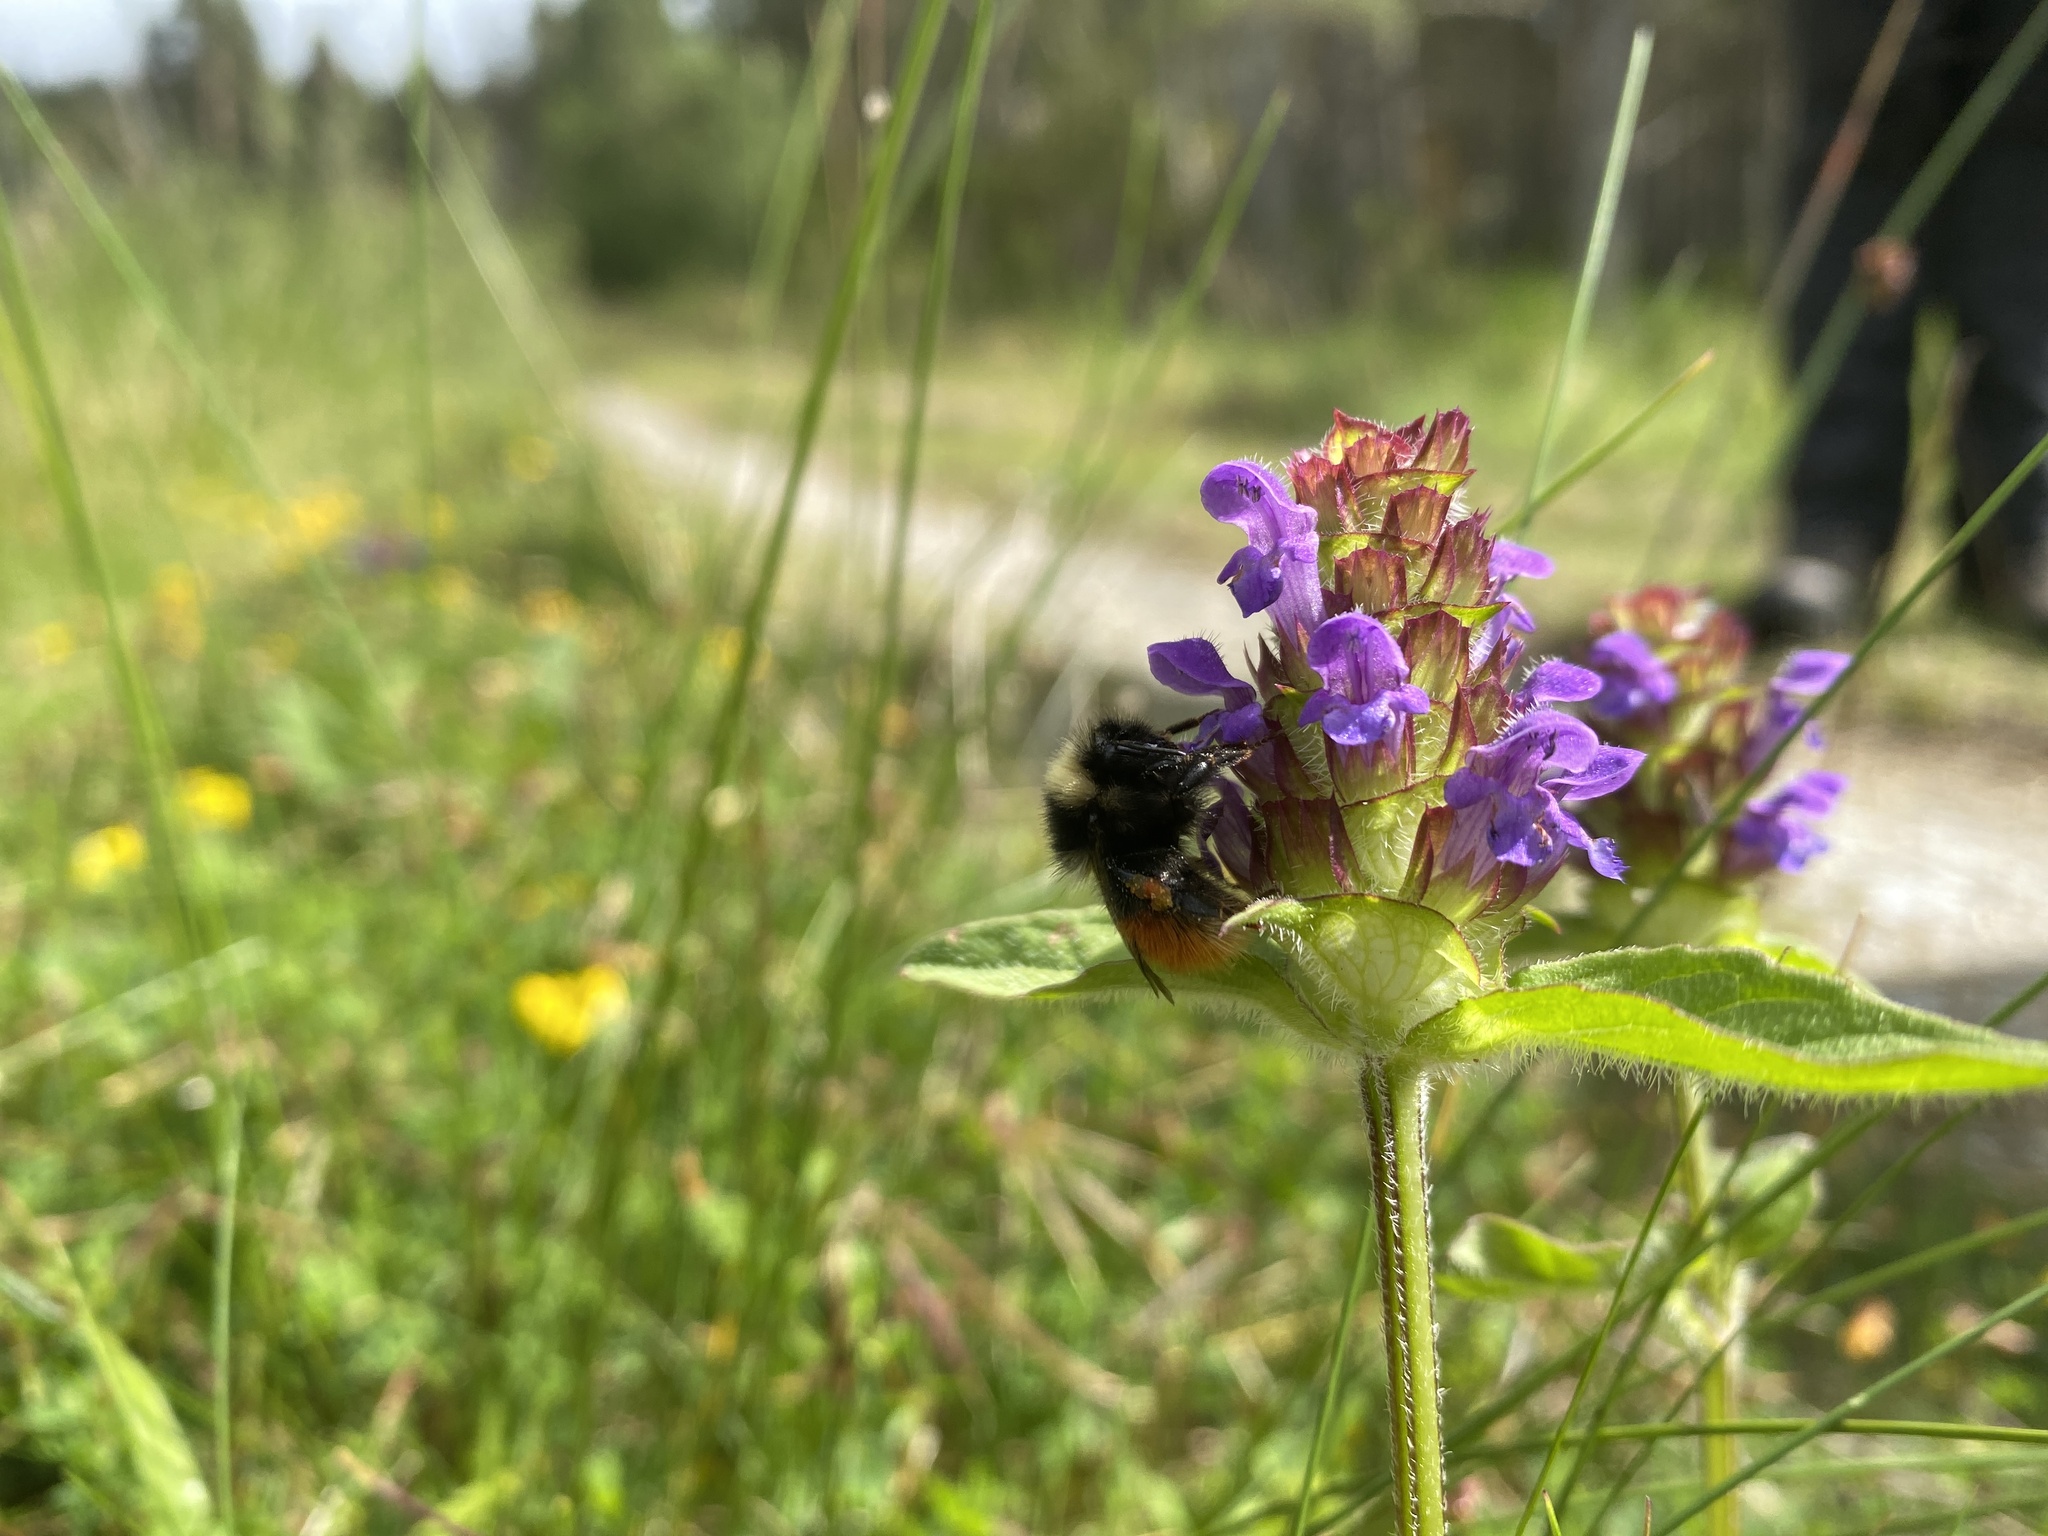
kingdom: Animalia
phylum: Arthropoda
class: Insecta
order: Hymenoptera
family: Apidae
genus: Bombus
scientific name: Bombus monticola
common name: Bilberry humble-bee
